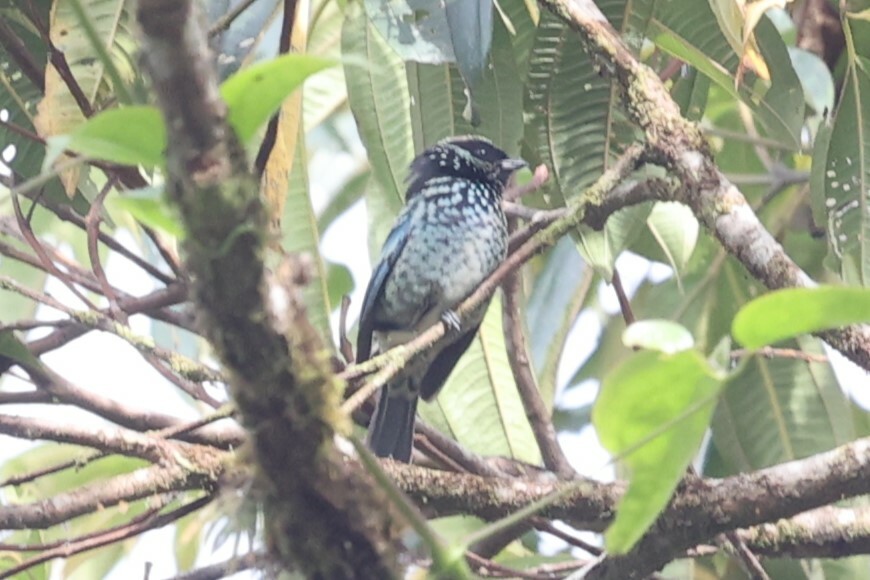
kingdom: Animalia
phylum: Chordata
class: Aves
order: Passeriformes
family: Thraupidae
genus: Tangara
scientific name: Tangara nigroviridis
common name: Beryl-spangled tanager
